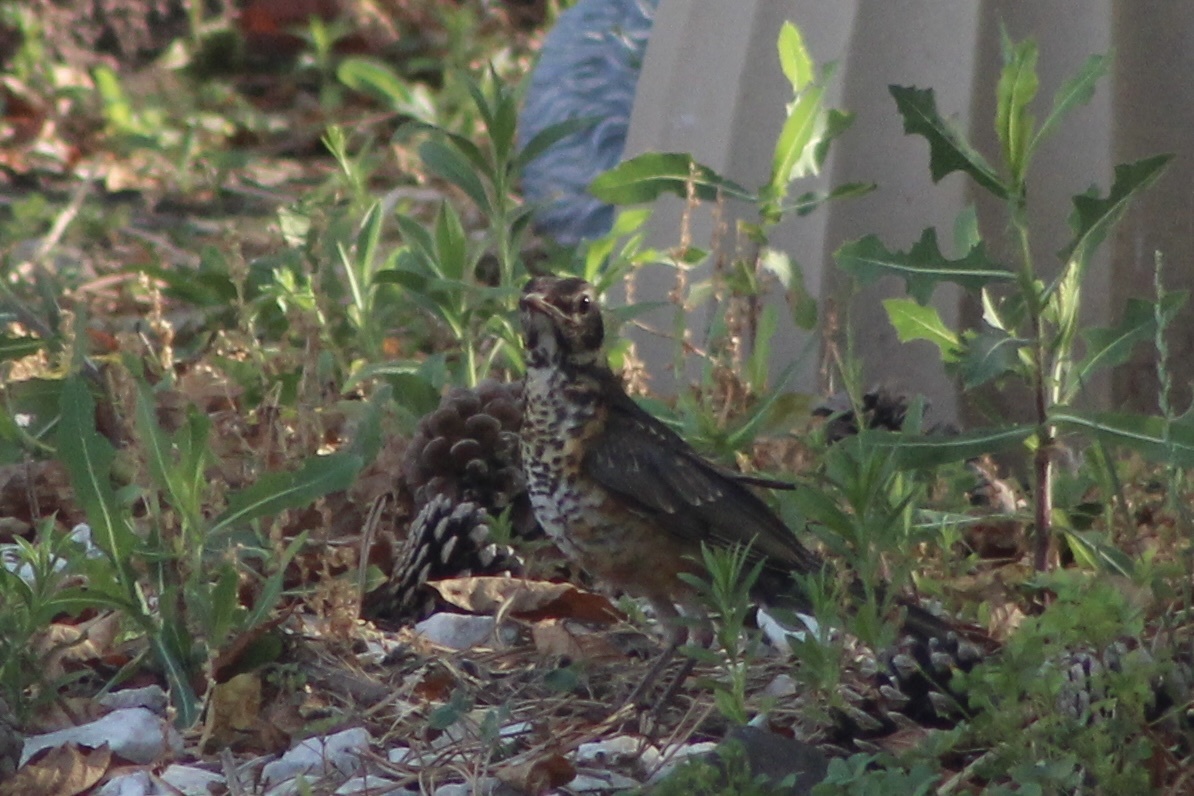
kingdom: Animalia
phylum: Chordata
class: Aves
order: Passeriformes
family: Turdidae
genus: Turdus
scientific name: Turdus migratorius
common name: American robin
